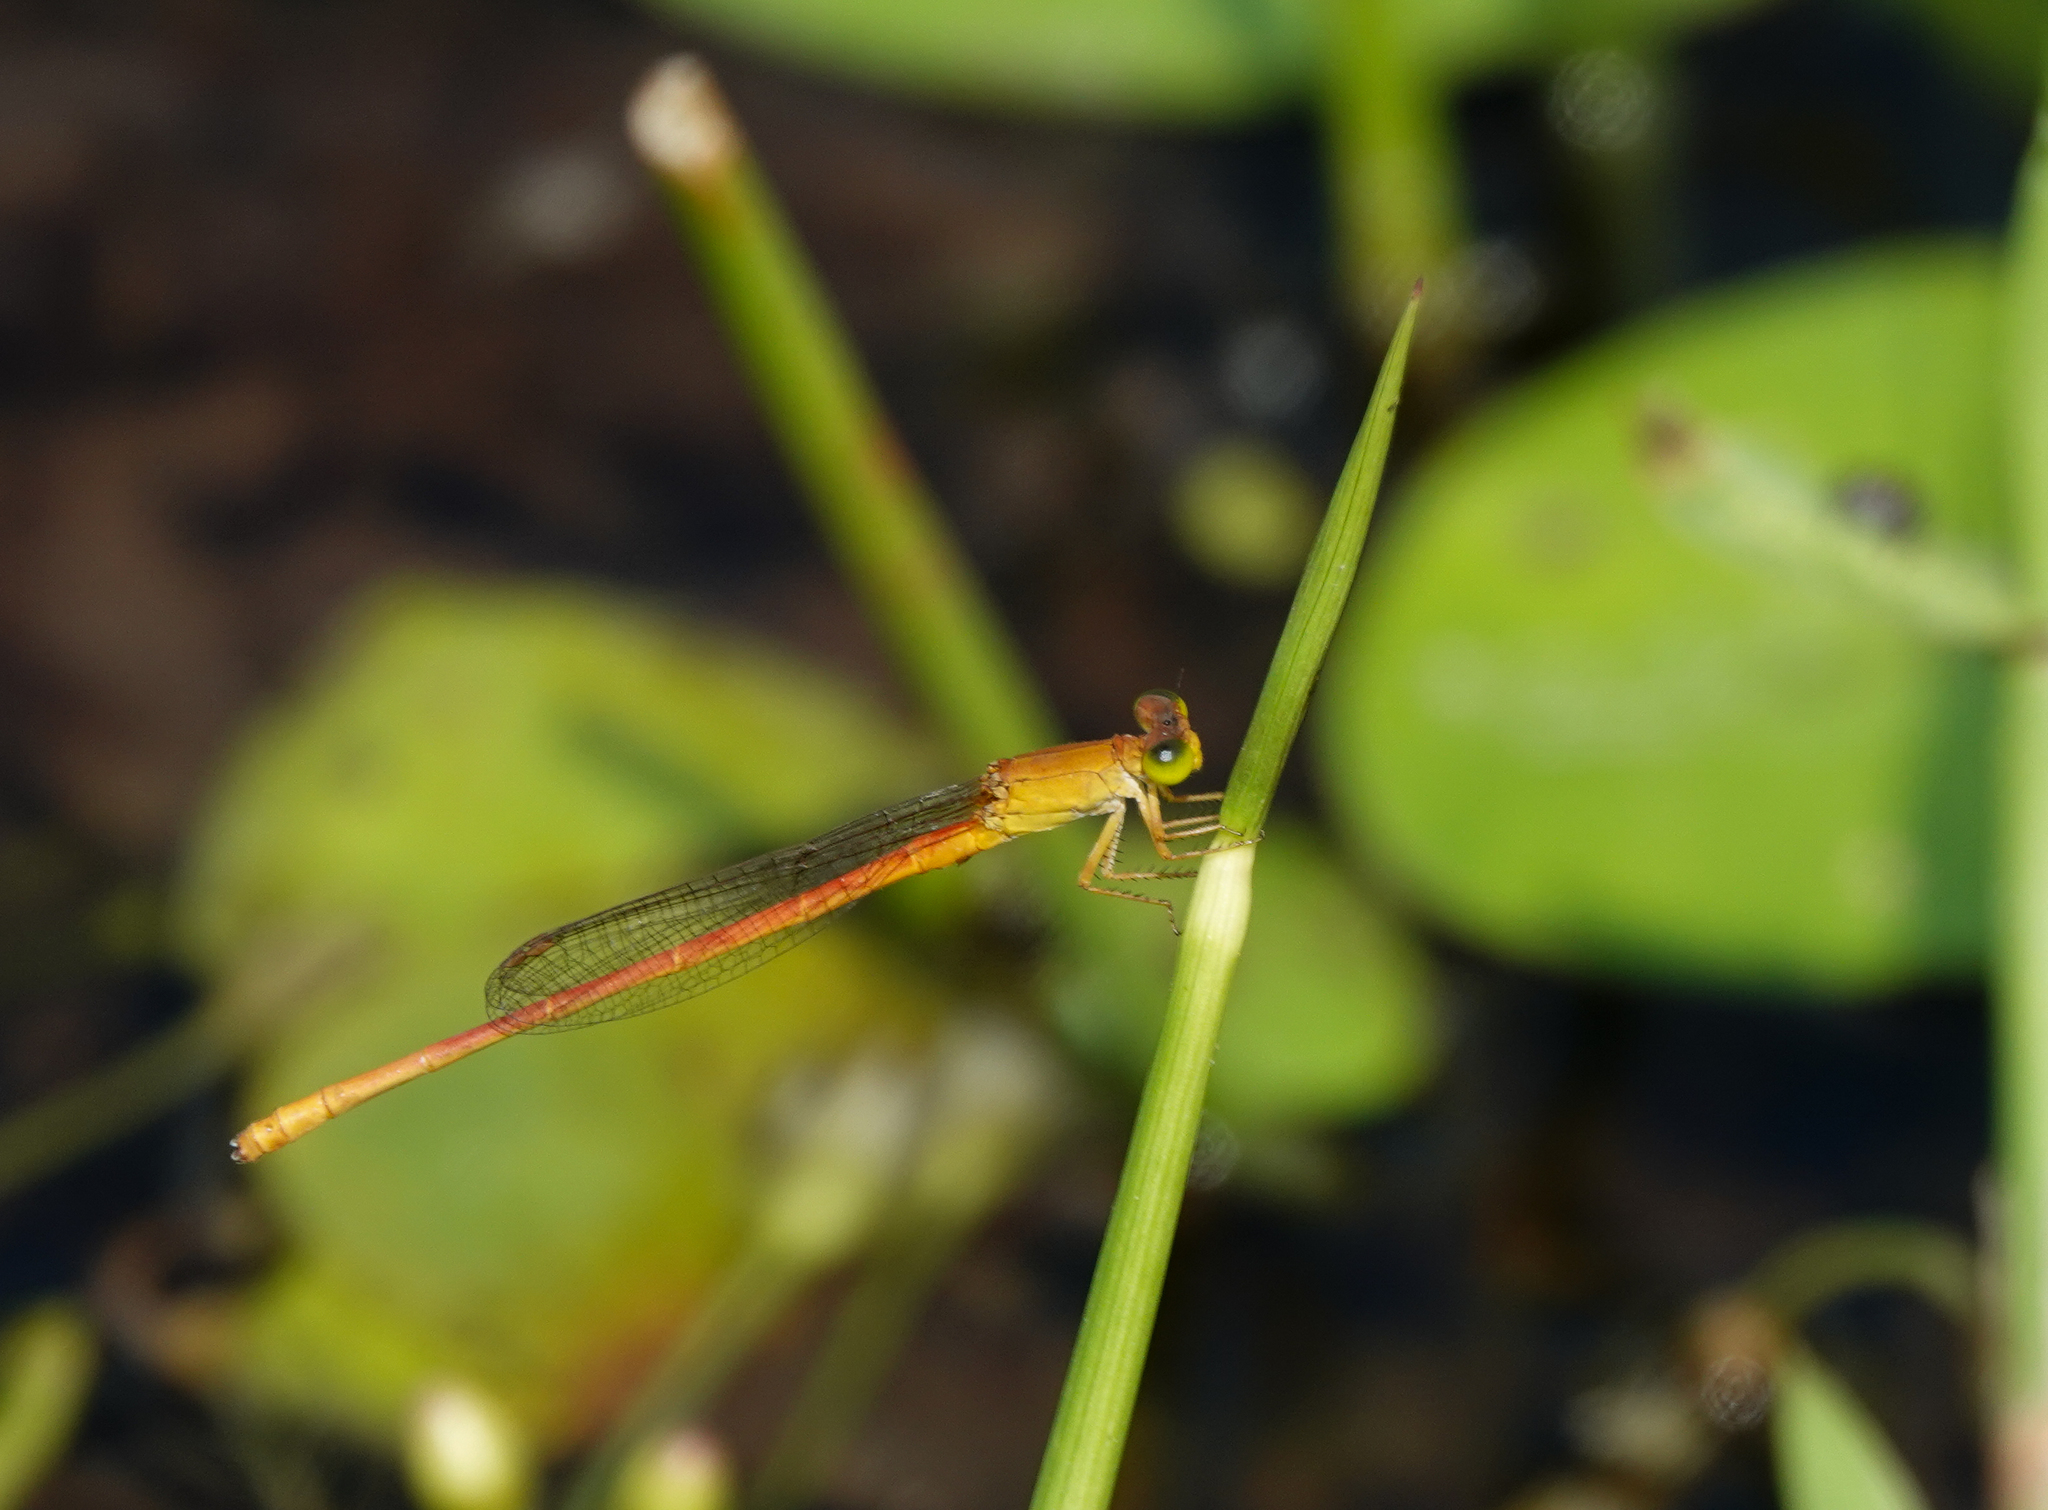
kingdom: Animalia
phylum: Arthropoda
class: Insecta
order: Odonata
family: Coenagrionidae
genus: Ceriagrion
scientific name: Ceriagrion rubiae
